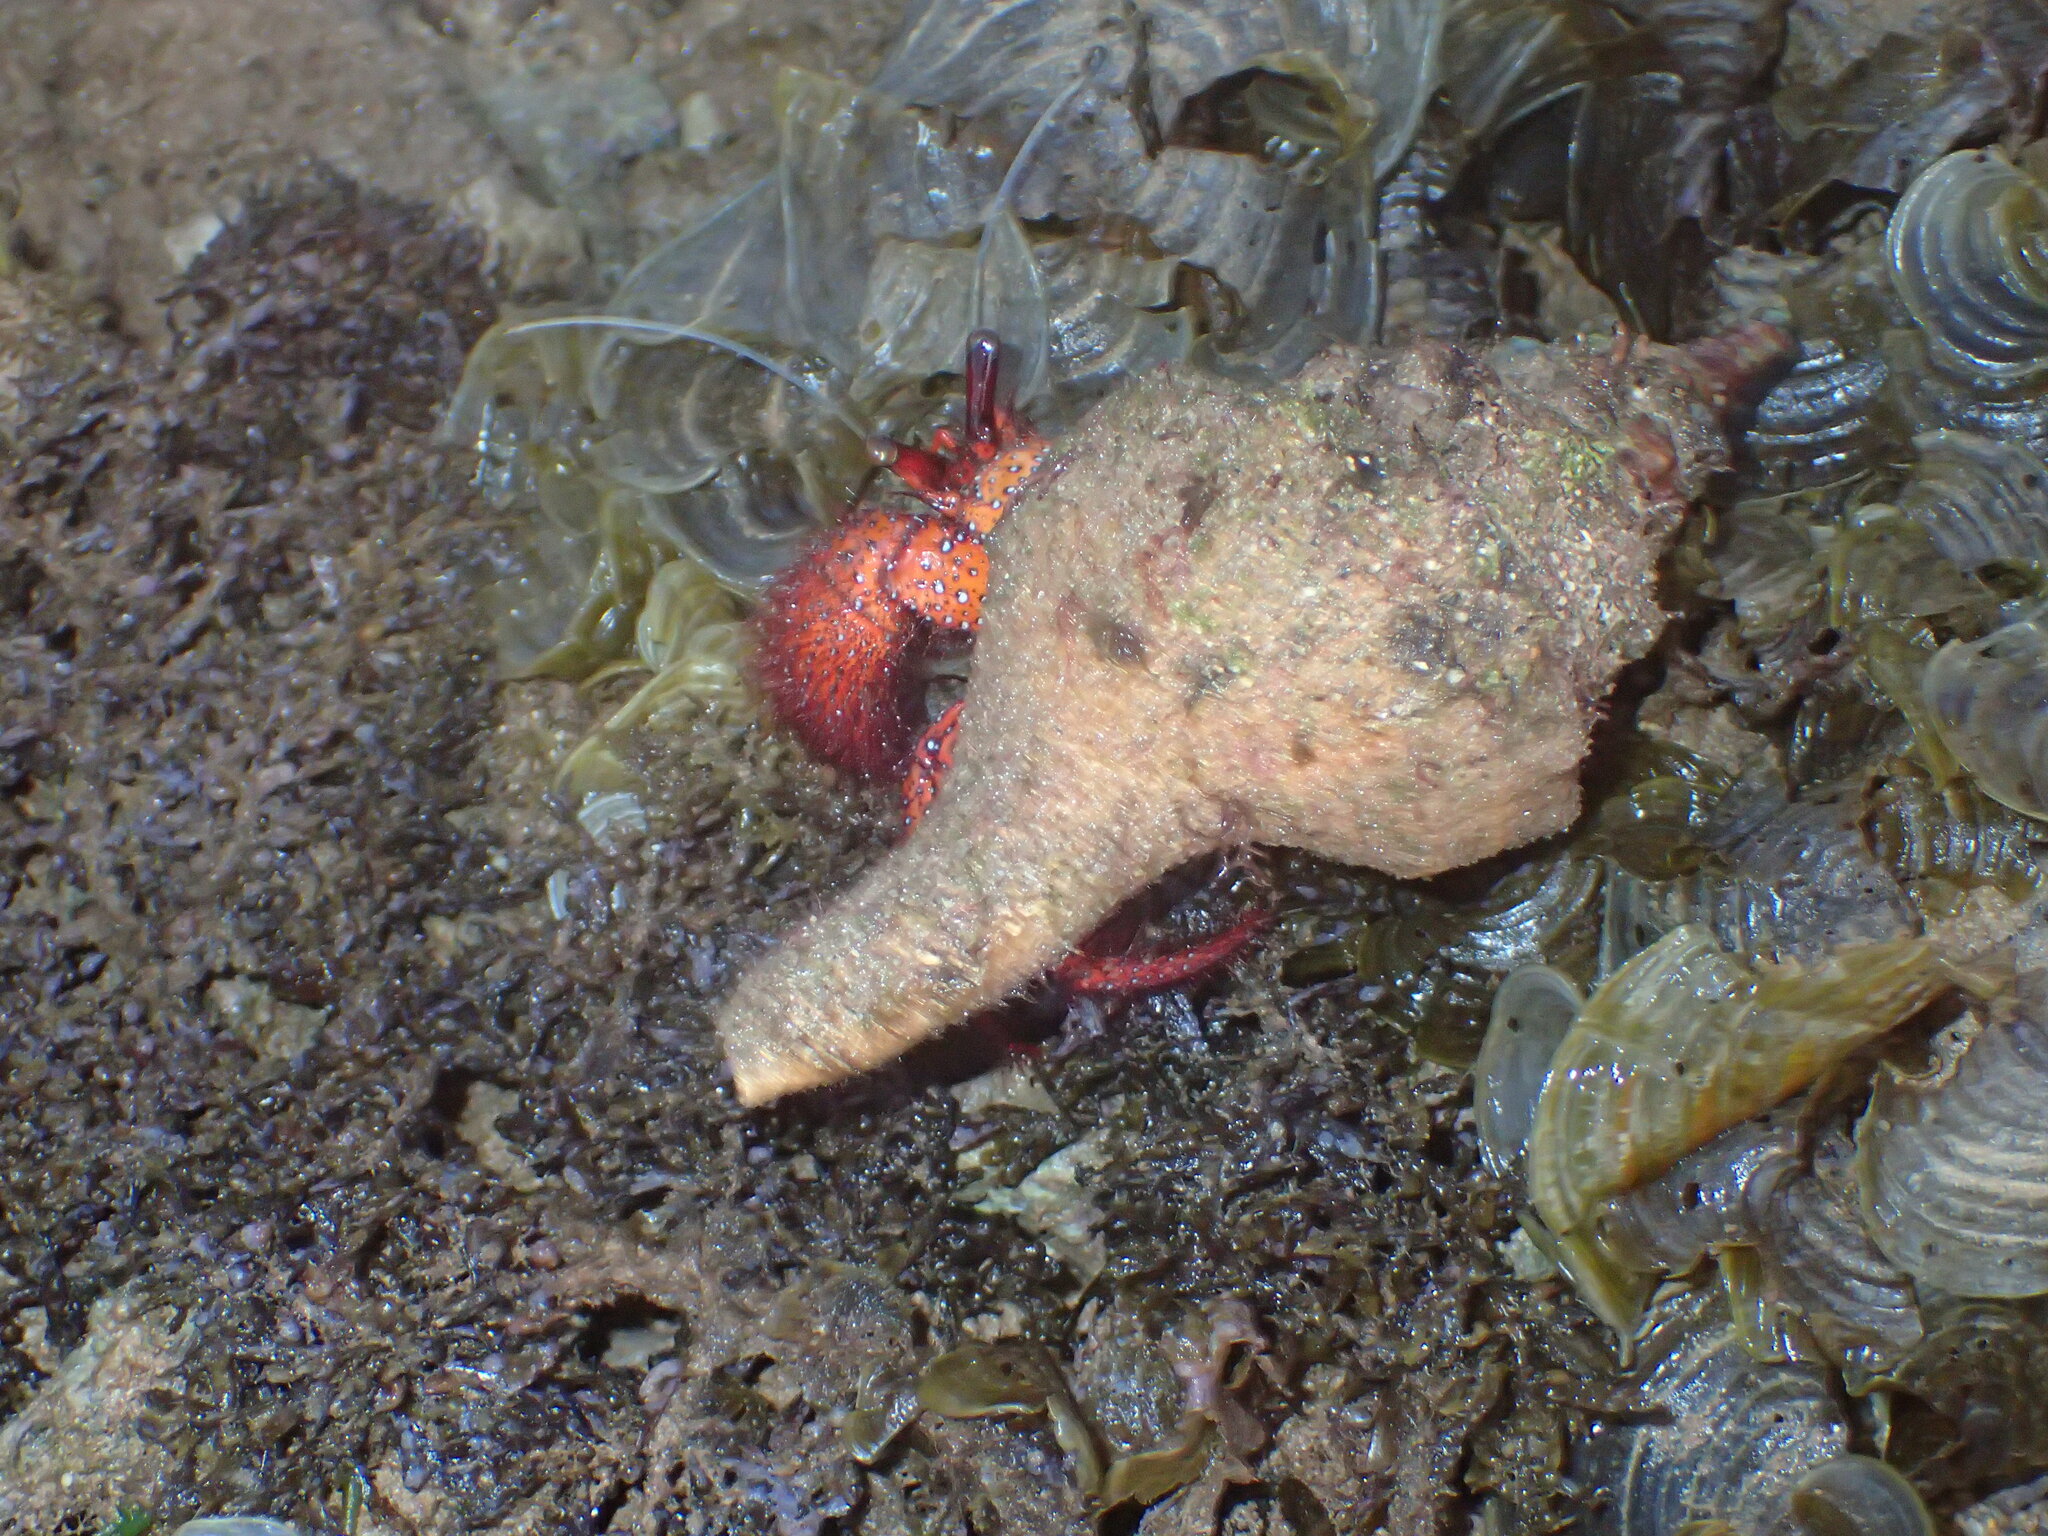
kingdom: Animalia
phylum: Arthropoda
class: Malacostraca
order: Decapoda
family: Diogenidae
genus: Dardanus
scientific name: Dardanus megistos
